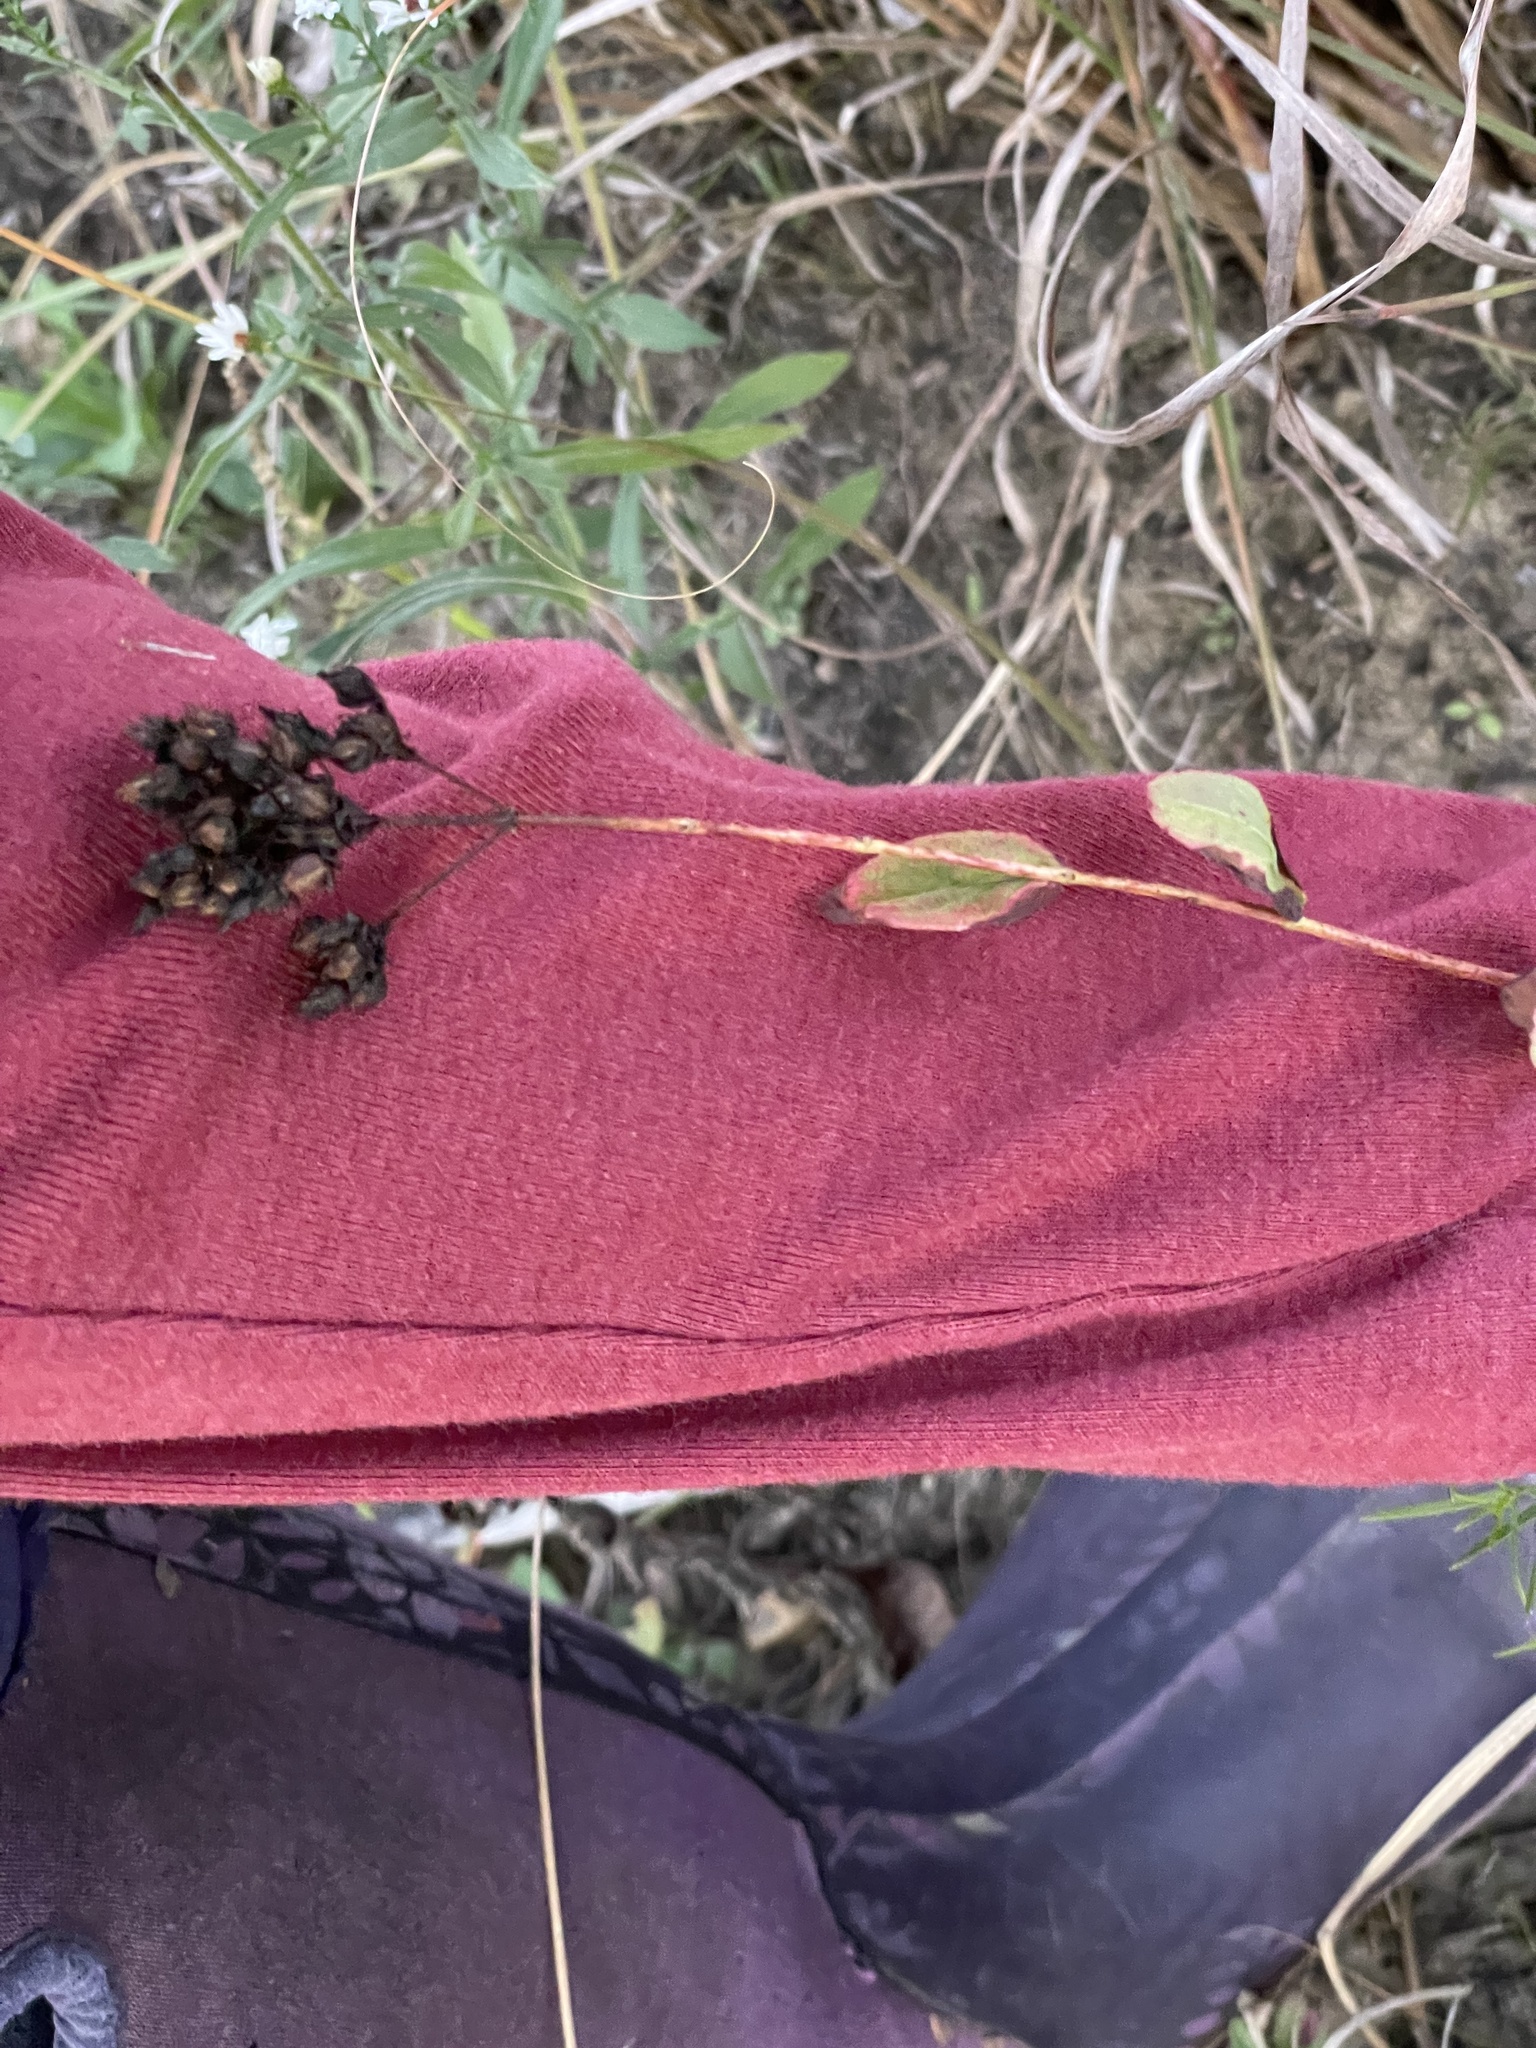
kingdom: Plantae
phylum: Tracheophyta
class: Magnoliopsida
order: Malpighiales
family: Hypericaceae
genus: Hypericum
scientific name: Hypericum punctatum
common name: Spotted st. john's-wort
